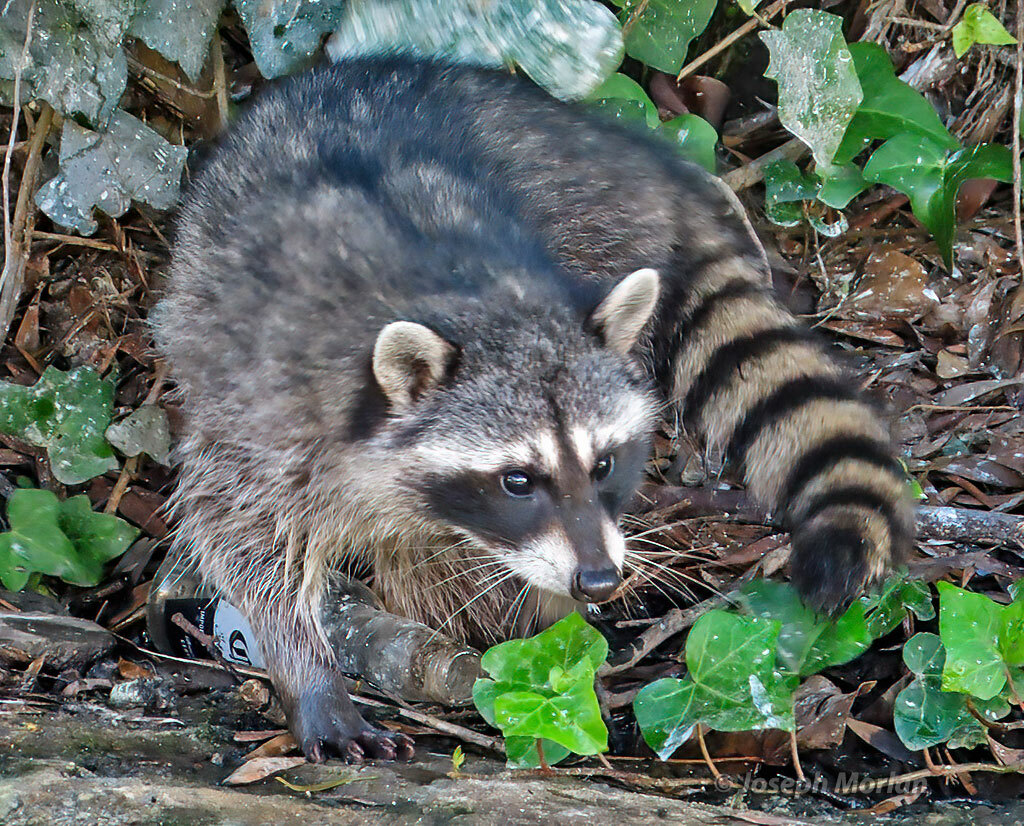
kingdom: Animalia
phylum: Chordata
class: Mammalia
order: Carnivora
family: Procyonidae
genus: Procyon
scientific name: Procyon lotor
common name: Raccoon
